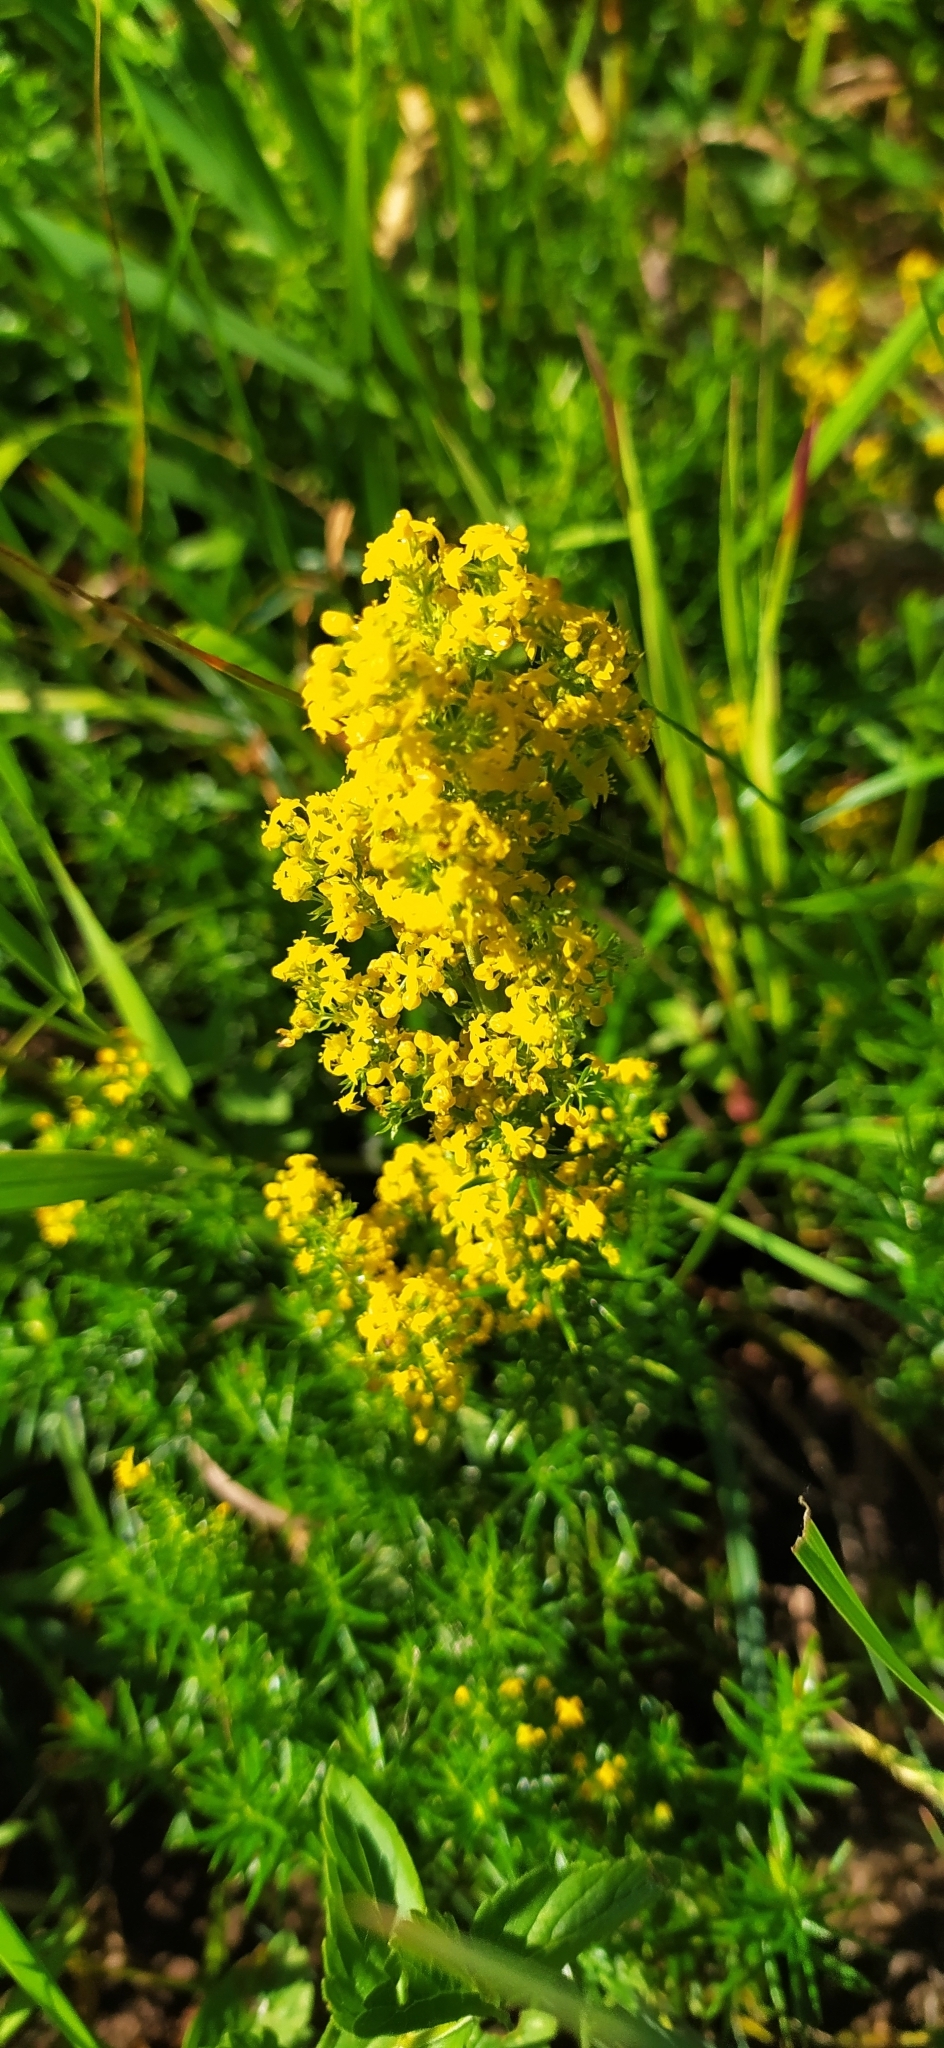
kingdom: Plantae
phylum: Tracheophyta
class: Magnoliopsida
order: Gentianales
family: Rubiaceae
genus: Galium
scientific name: Galium verum
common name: Lady's bedstraw
